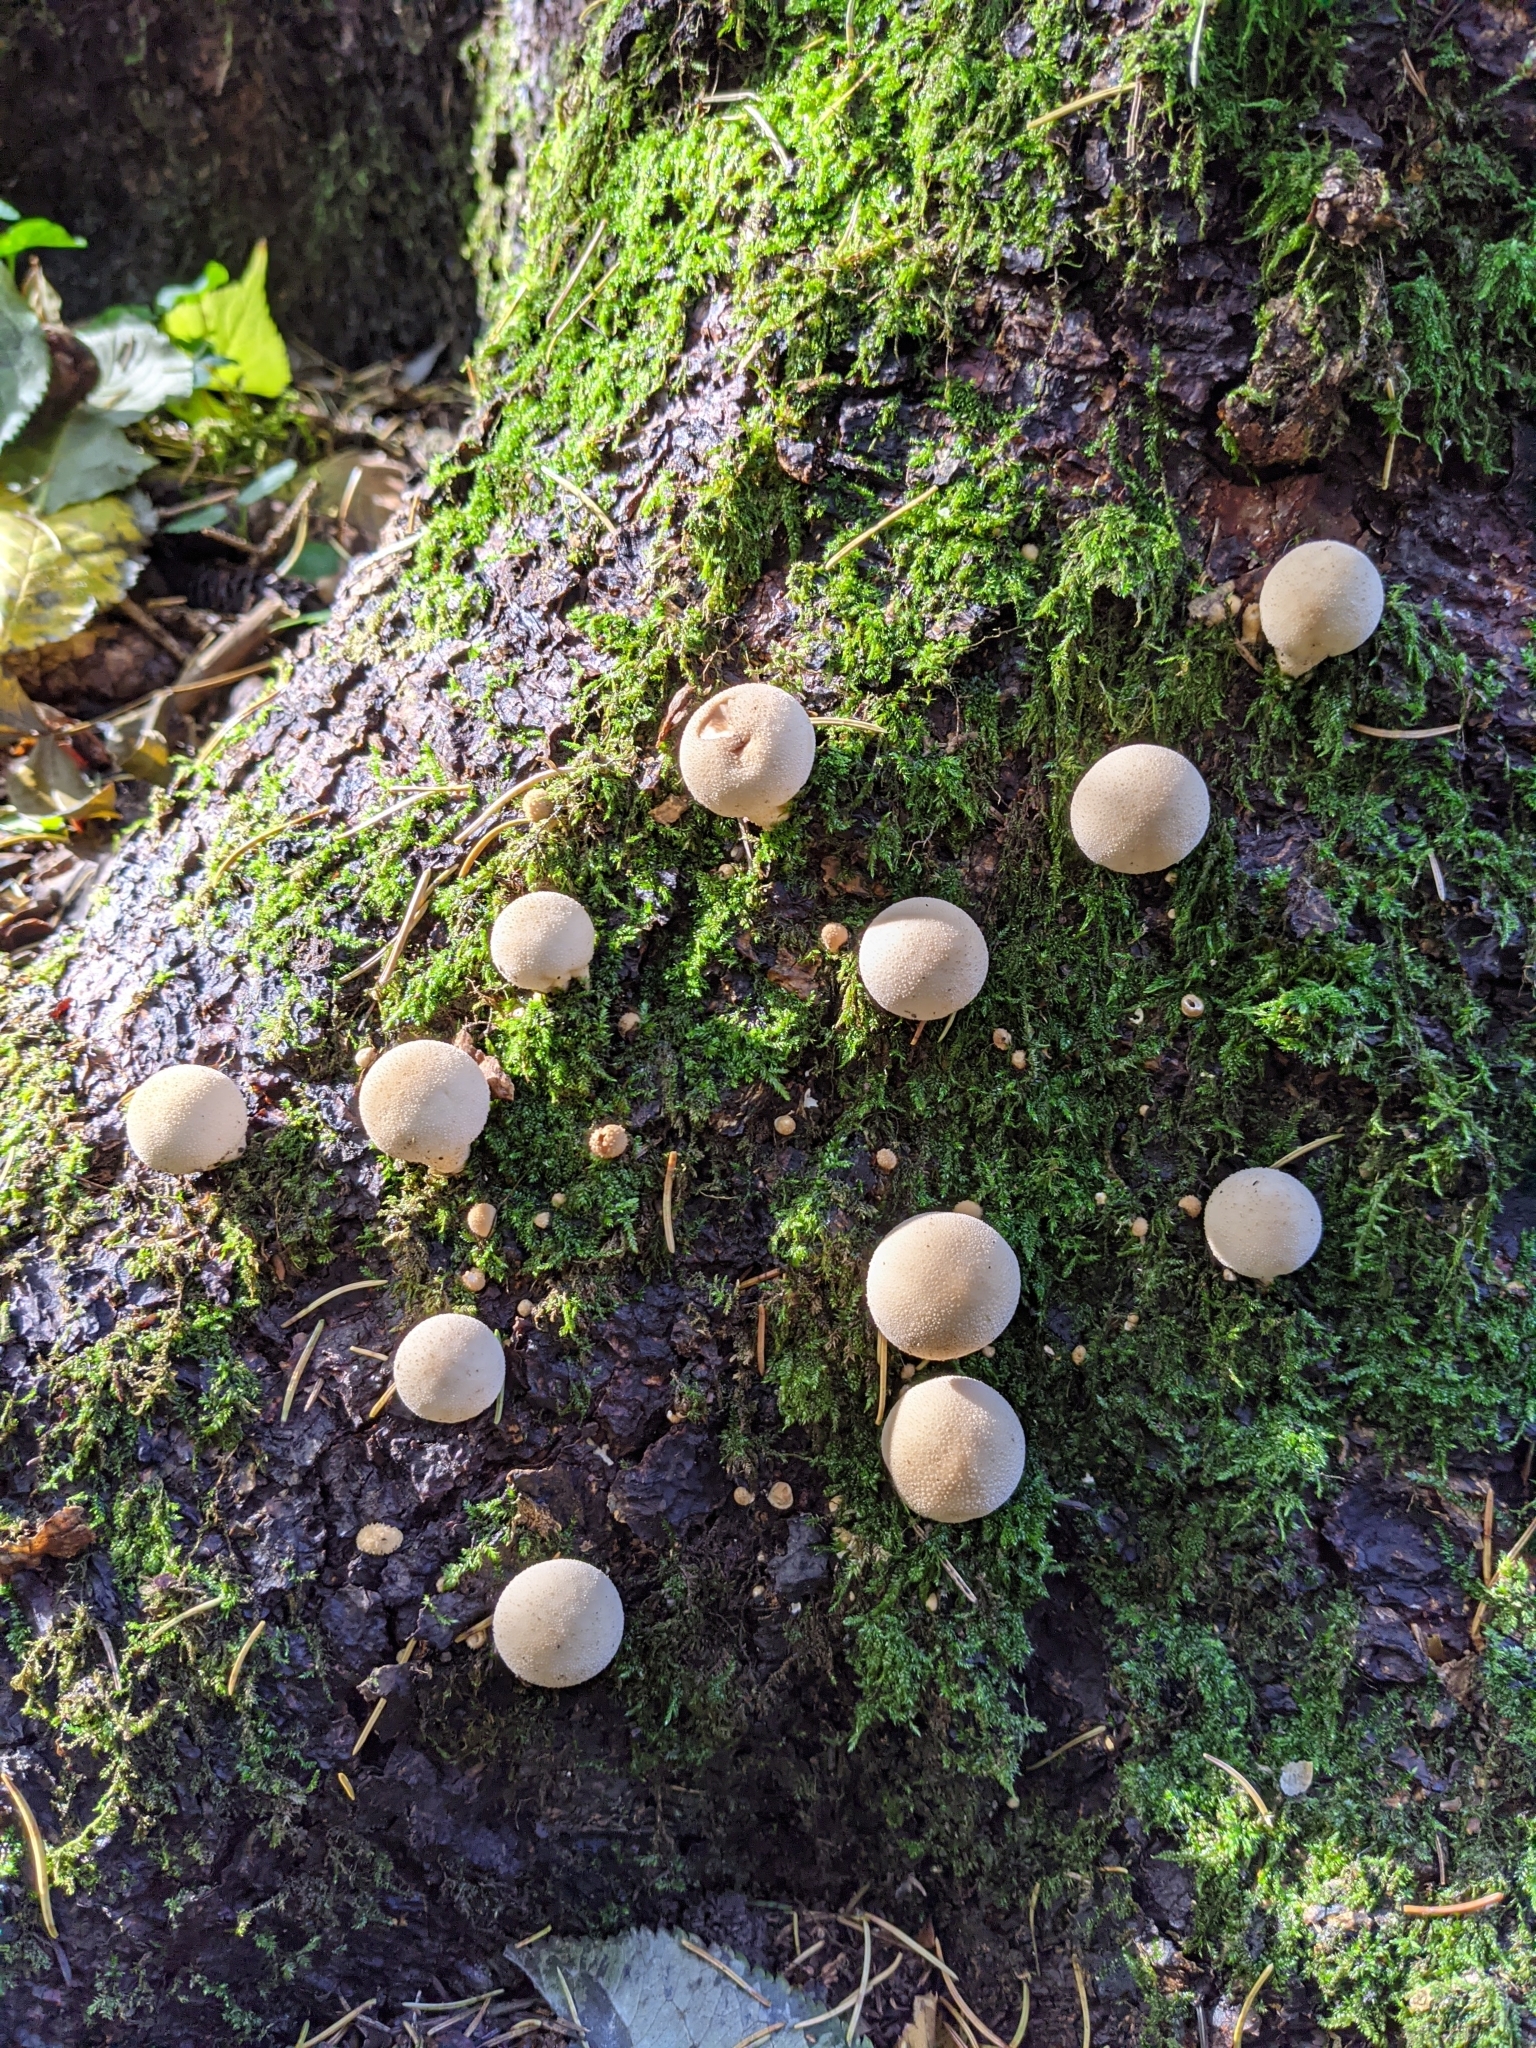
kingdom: Fungi
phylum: Basidiomycota
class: Agaricomycetes
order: Agaricales
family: Lycoperdaceae
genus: Apioperdon
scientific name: Apioperdon pyriforme
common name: Pear-shaped puffball
